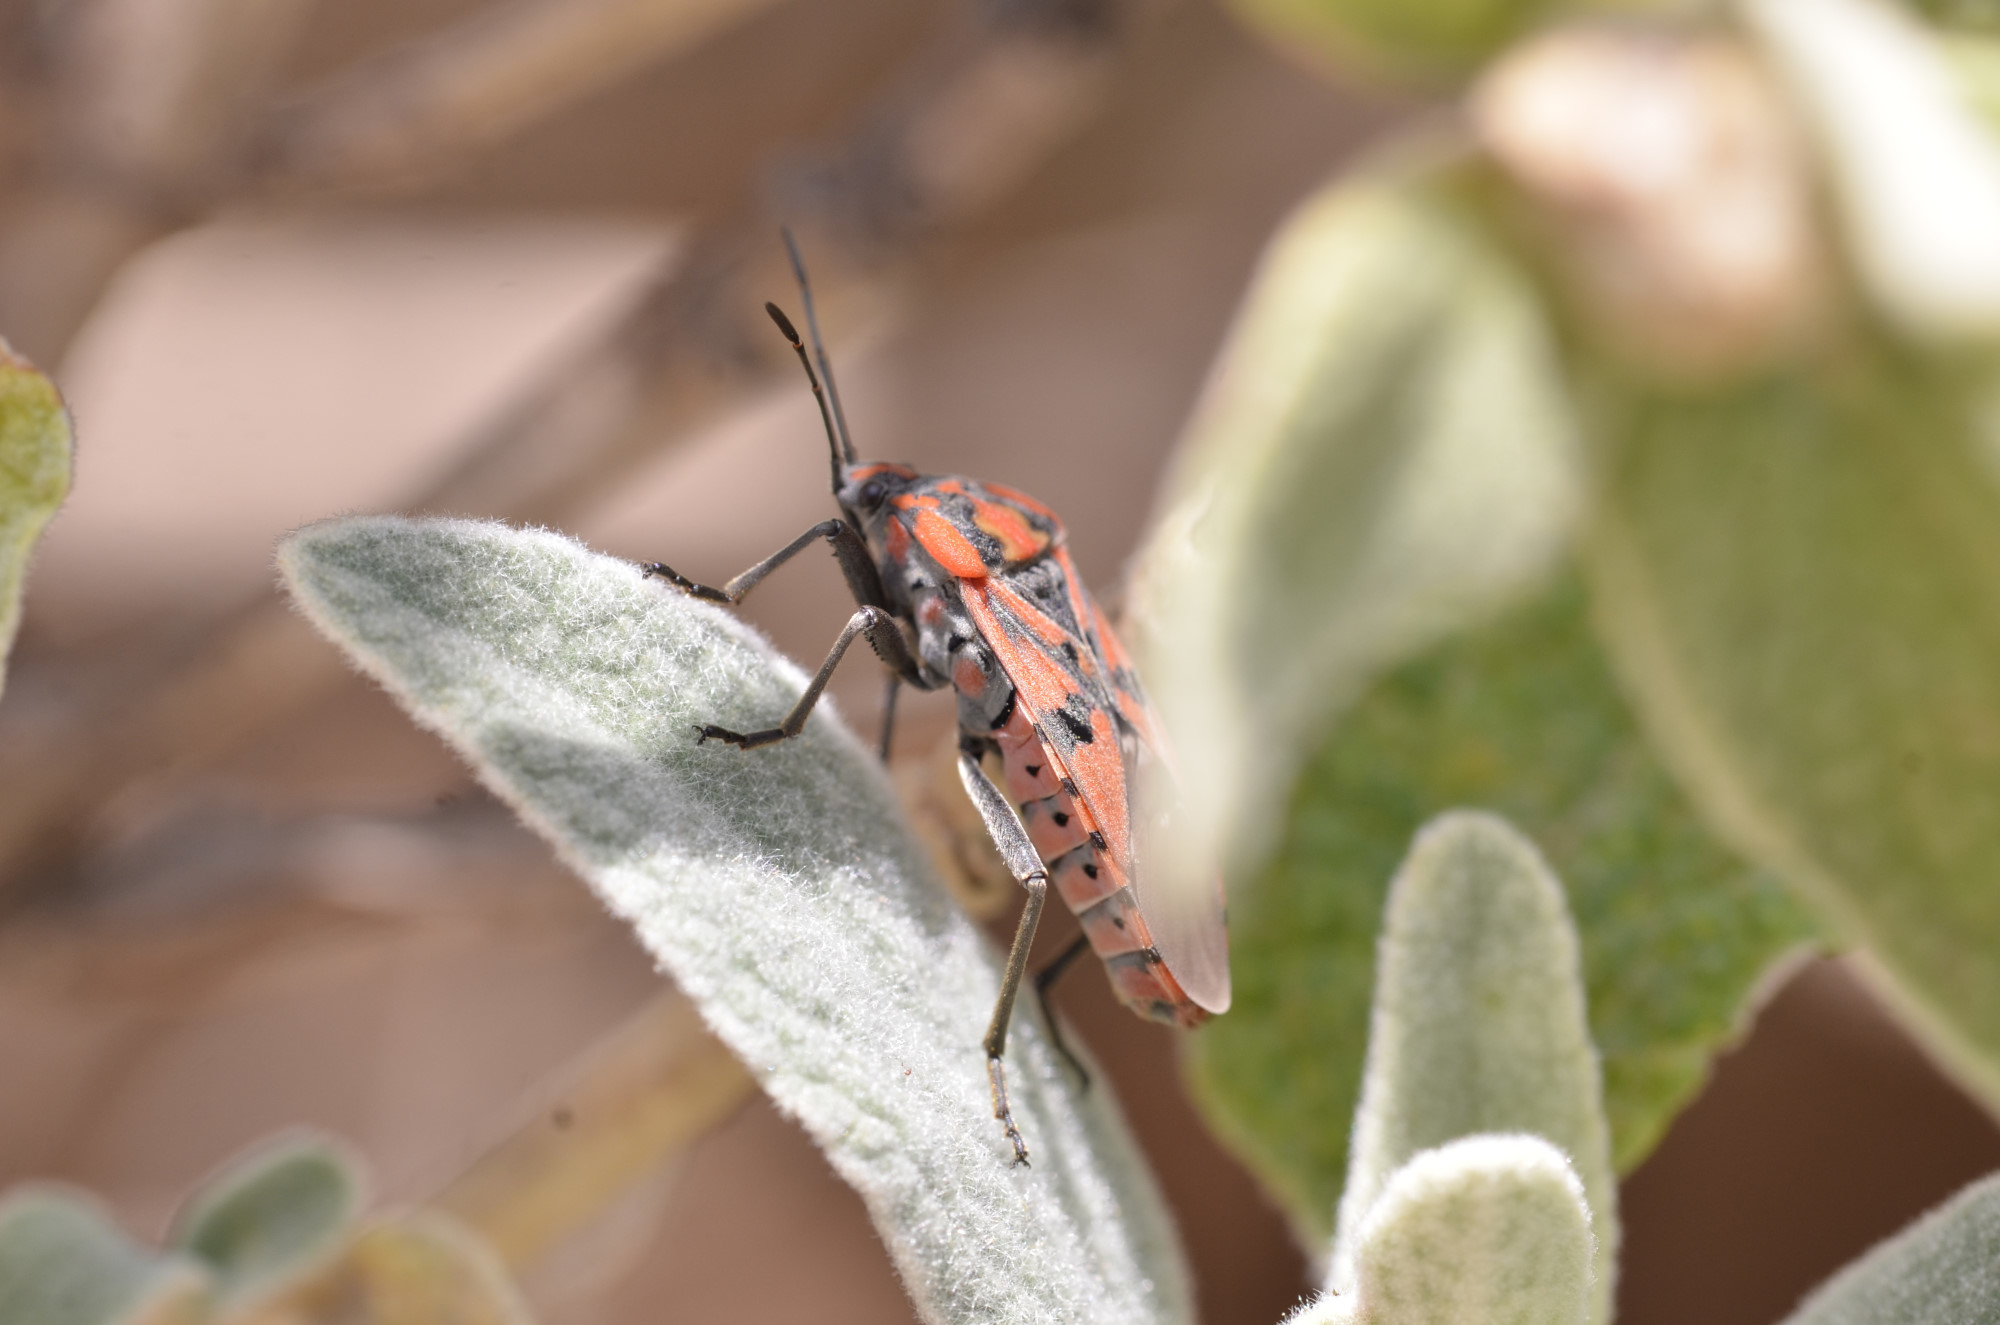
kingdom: Animalia
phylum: Arthropoda
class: Insecta
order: Hemiptera
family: Lygaeidae
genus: Spilostethus
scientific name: Spilostethus pandurus
